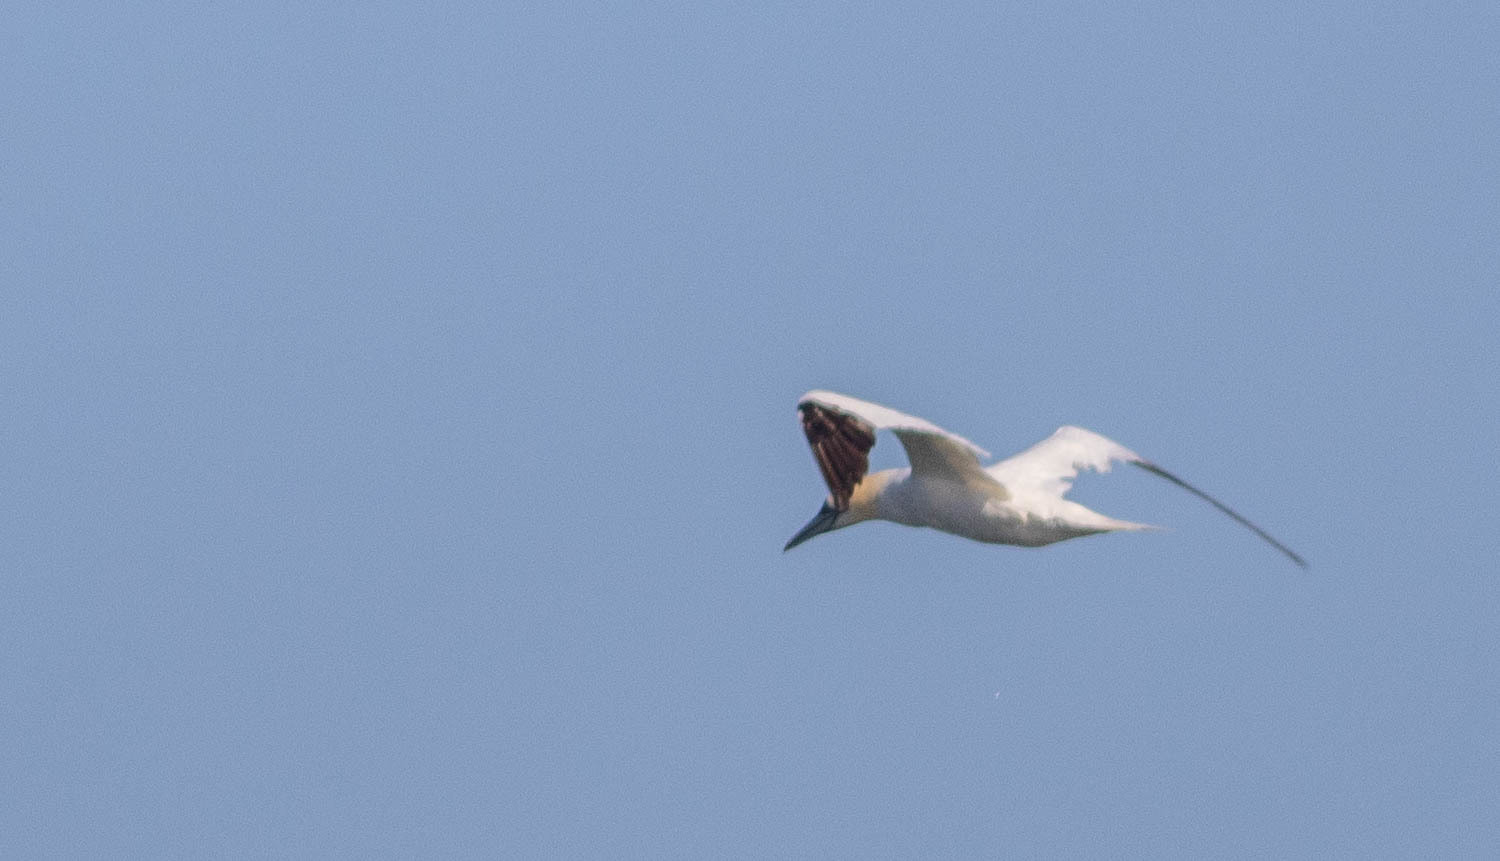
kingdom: Animalia
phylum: Chordata
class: Aves
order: Suliformes
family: Sulidae
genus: Morus
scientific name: Morus bassanus
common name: Northern gannet
